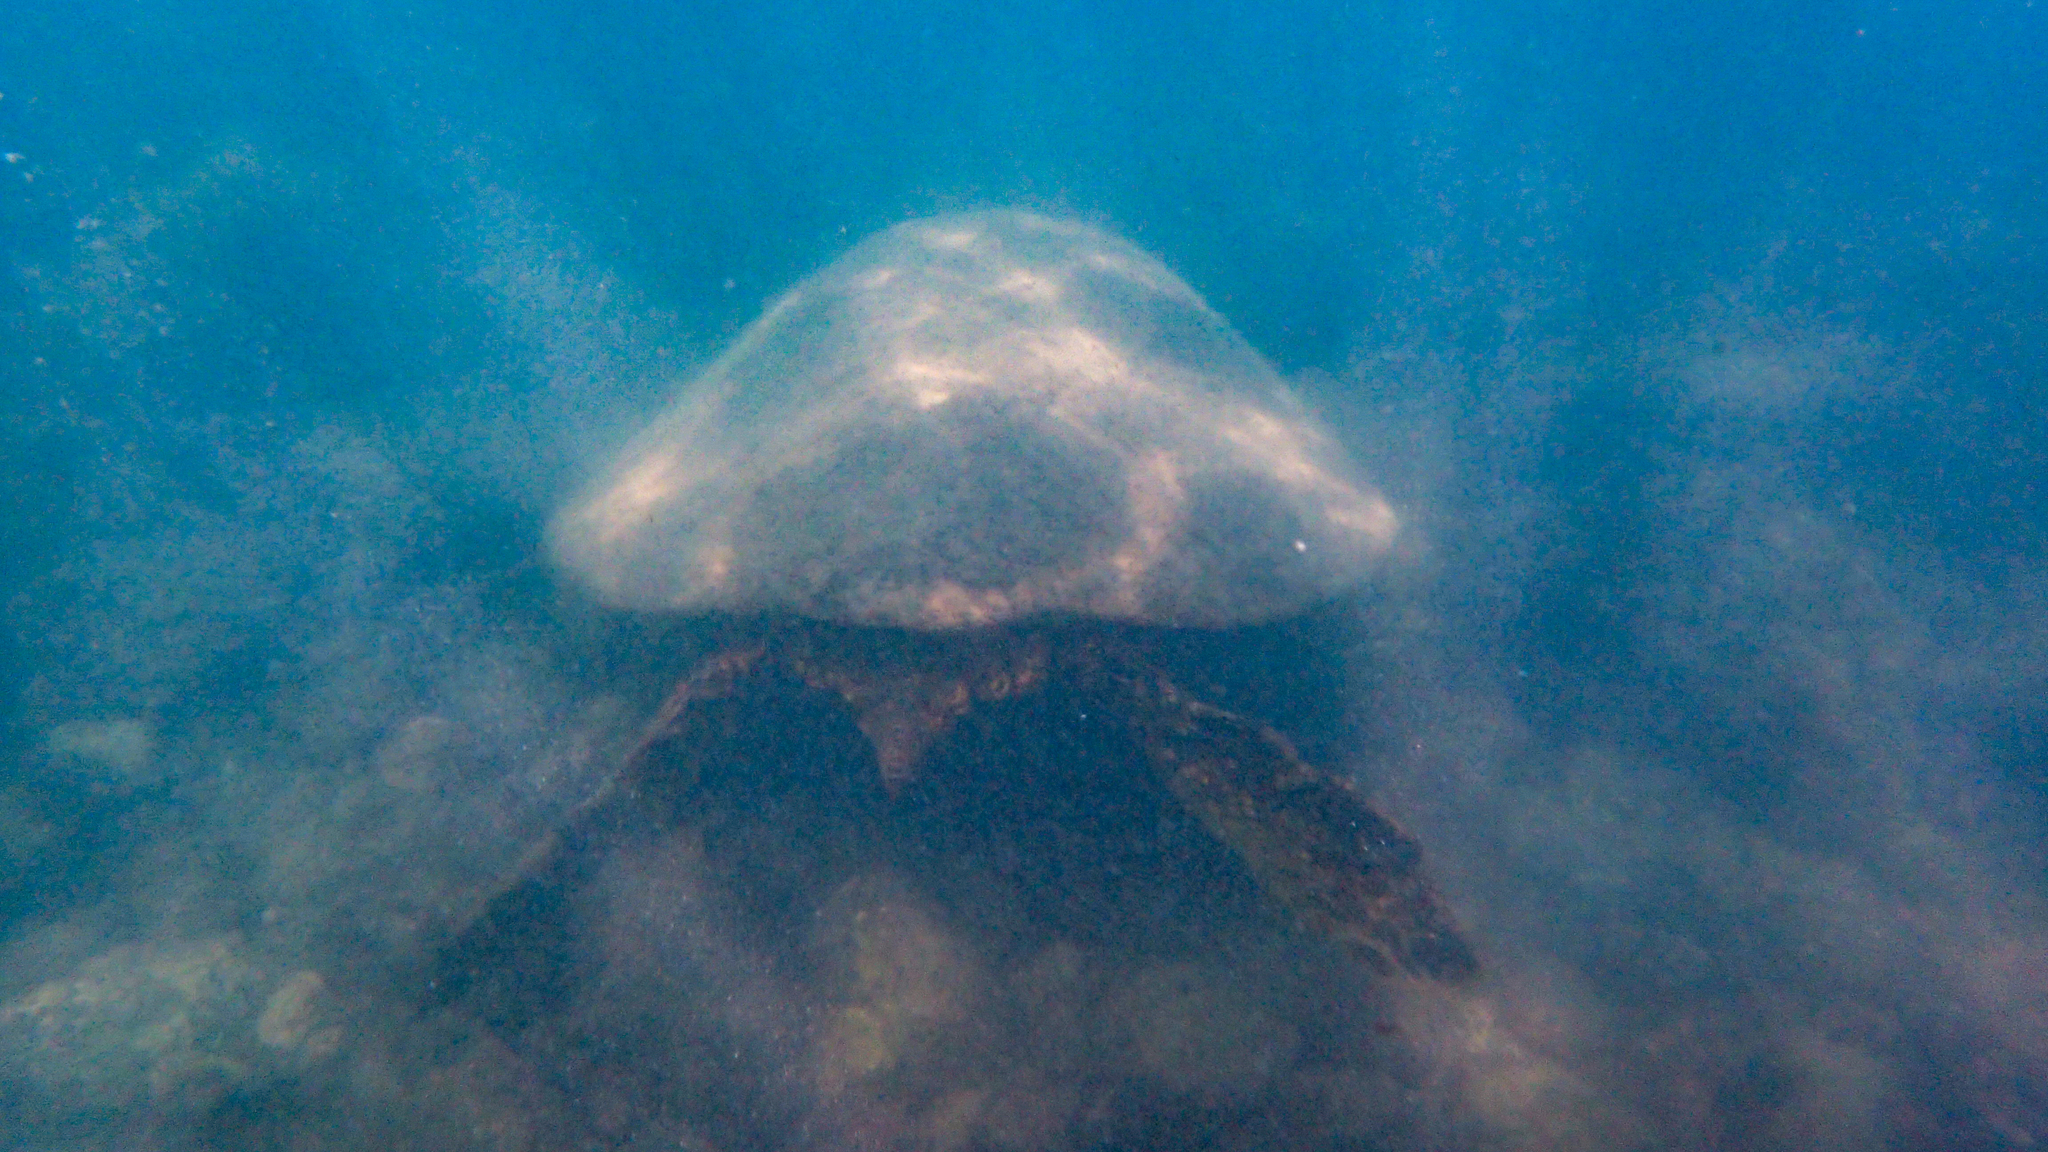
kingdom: Animalia
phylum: Chordata
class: Testudines
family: Cheloniidae
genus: Chelonia
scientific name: Chelonia mydas
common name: Green turtle
